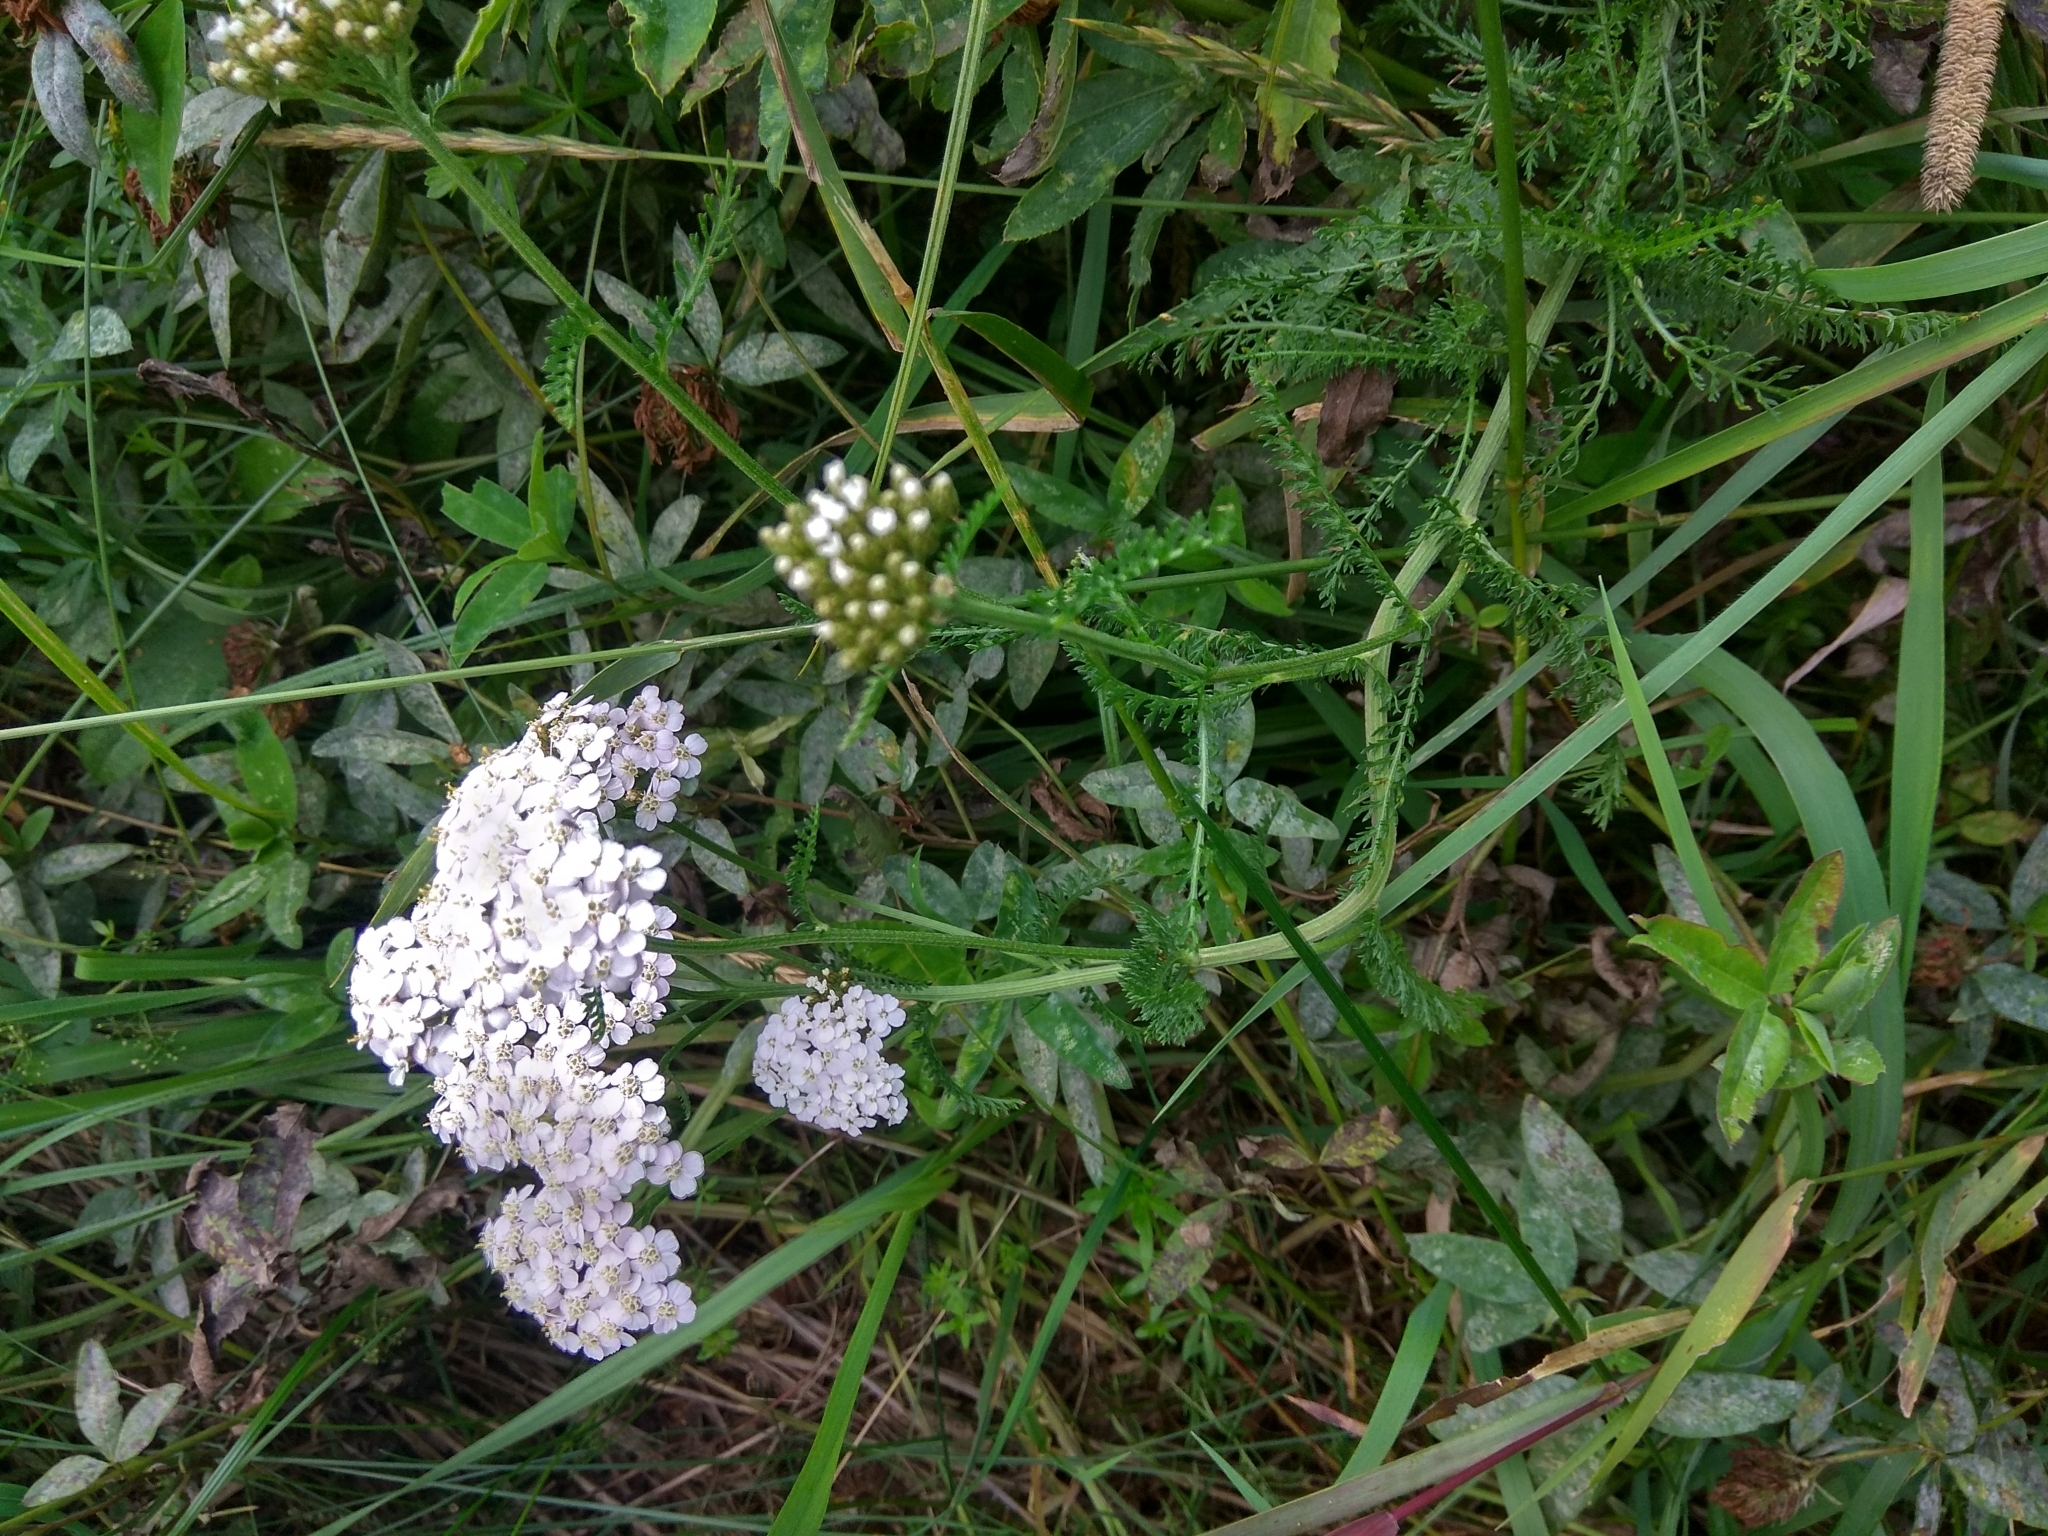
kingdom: Plantae
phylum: Tracheophyta
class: Magnoliopsida
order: Asterales
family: Asteraceae
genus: Achillea
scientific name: Achillea millefolium
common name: Yarrow
